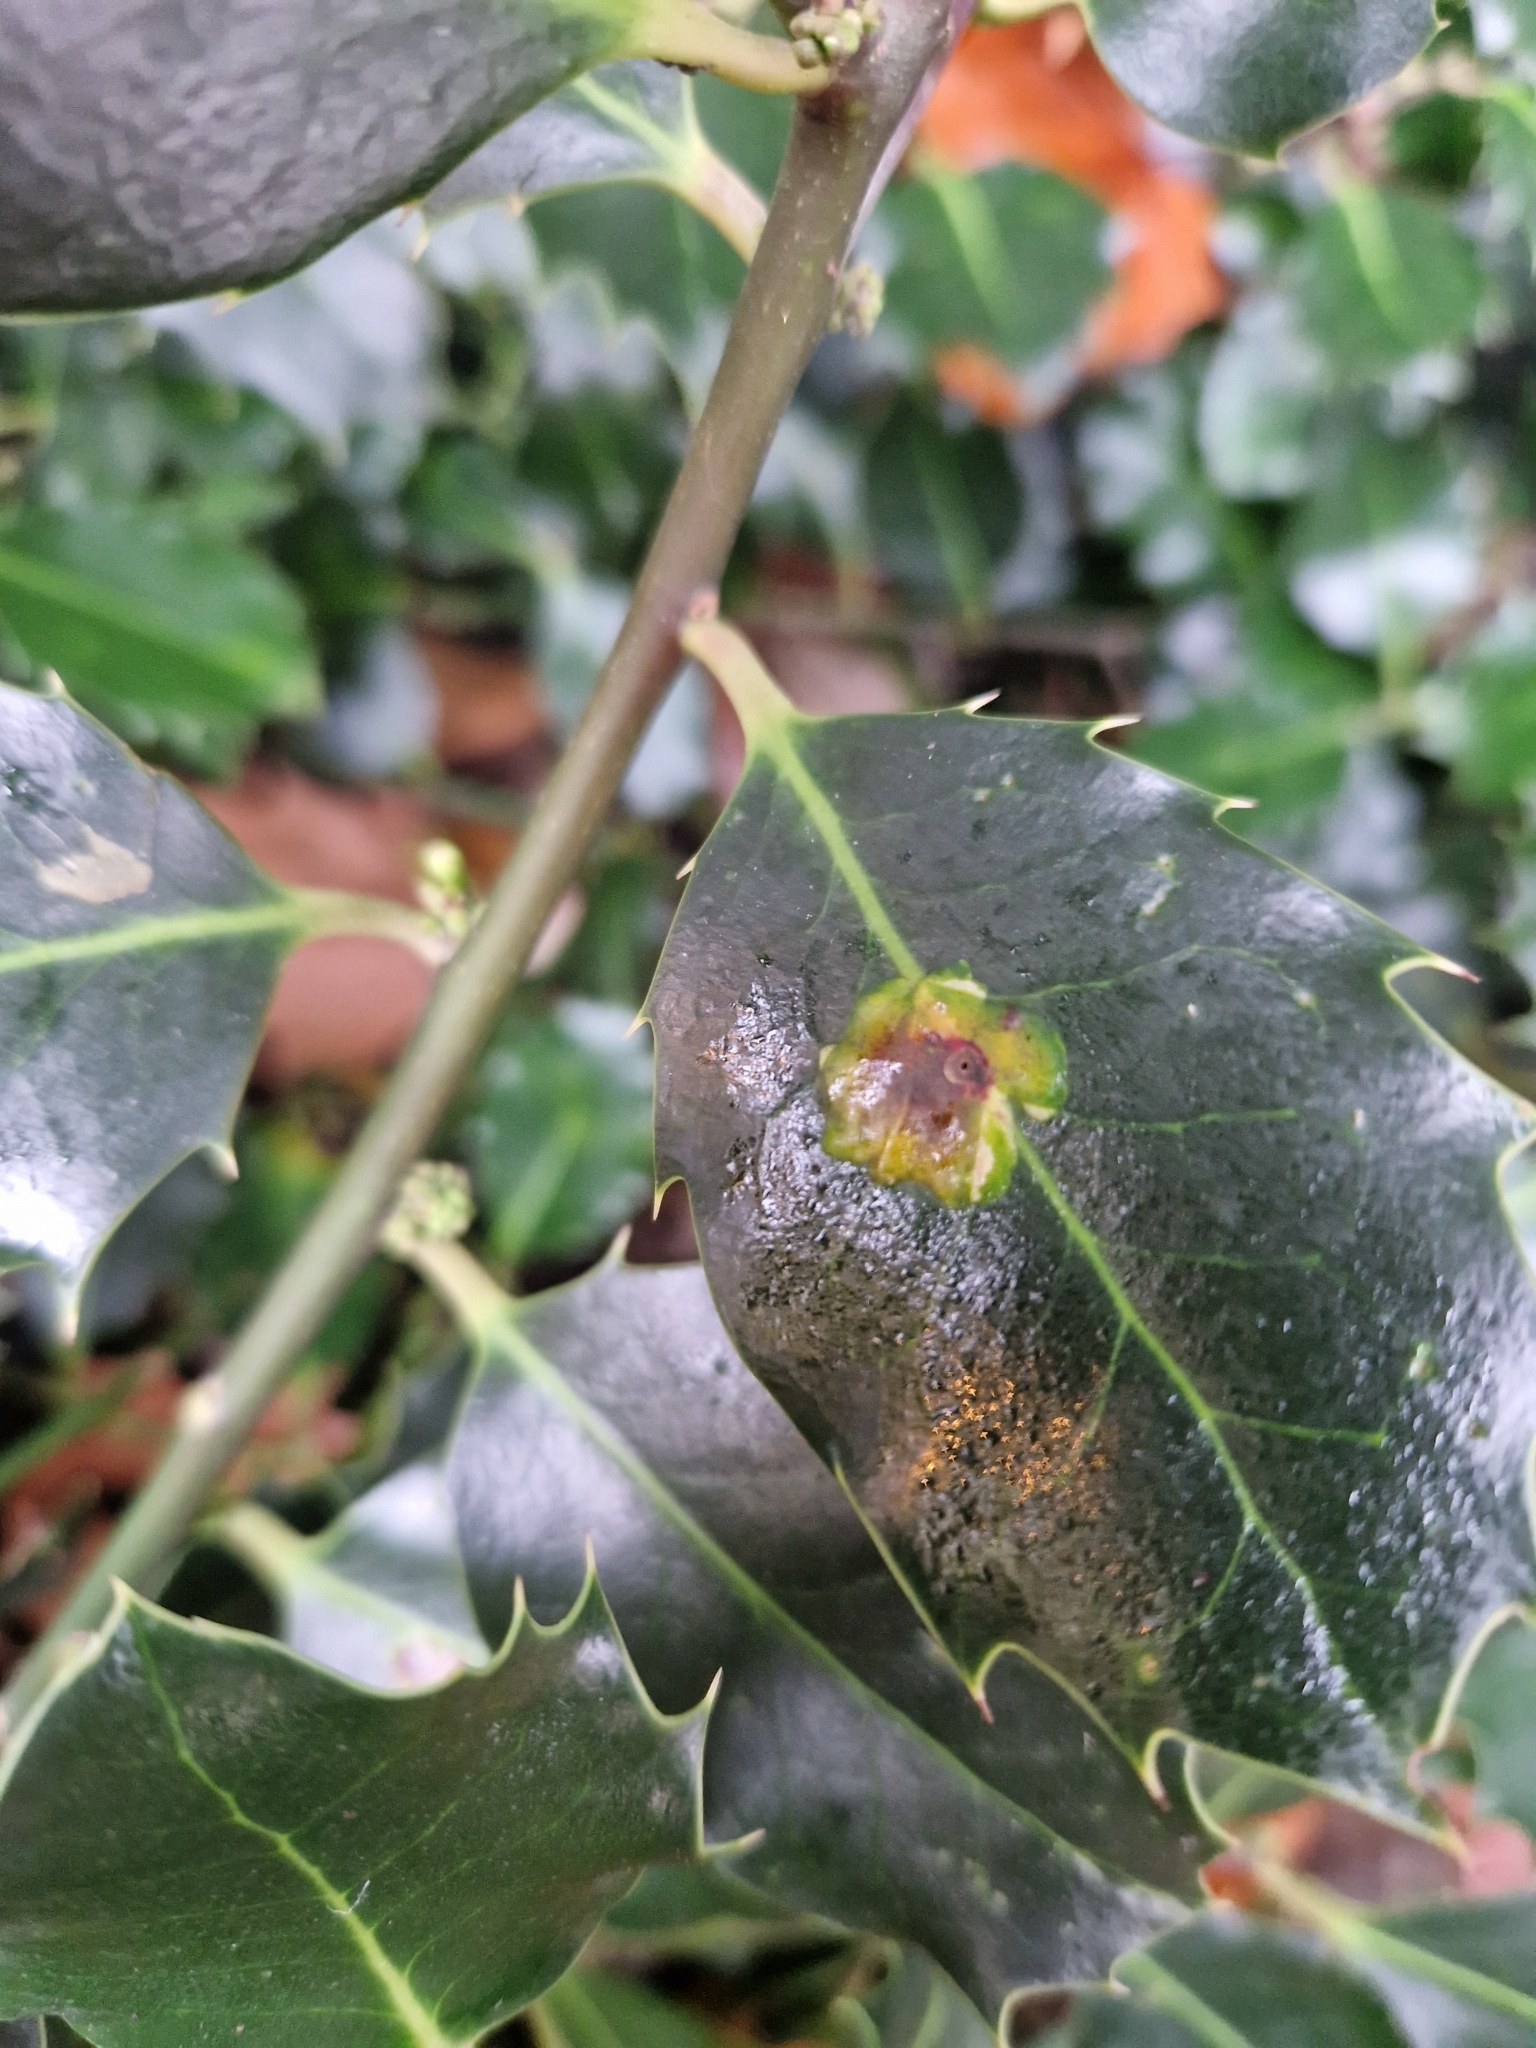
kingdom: Animalia
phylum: Arthropoda
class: Insecta
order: Diptera
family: Agromyzidae
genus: Phytomyza
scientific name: Phytomyza ilicis
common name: Holly leafminer
